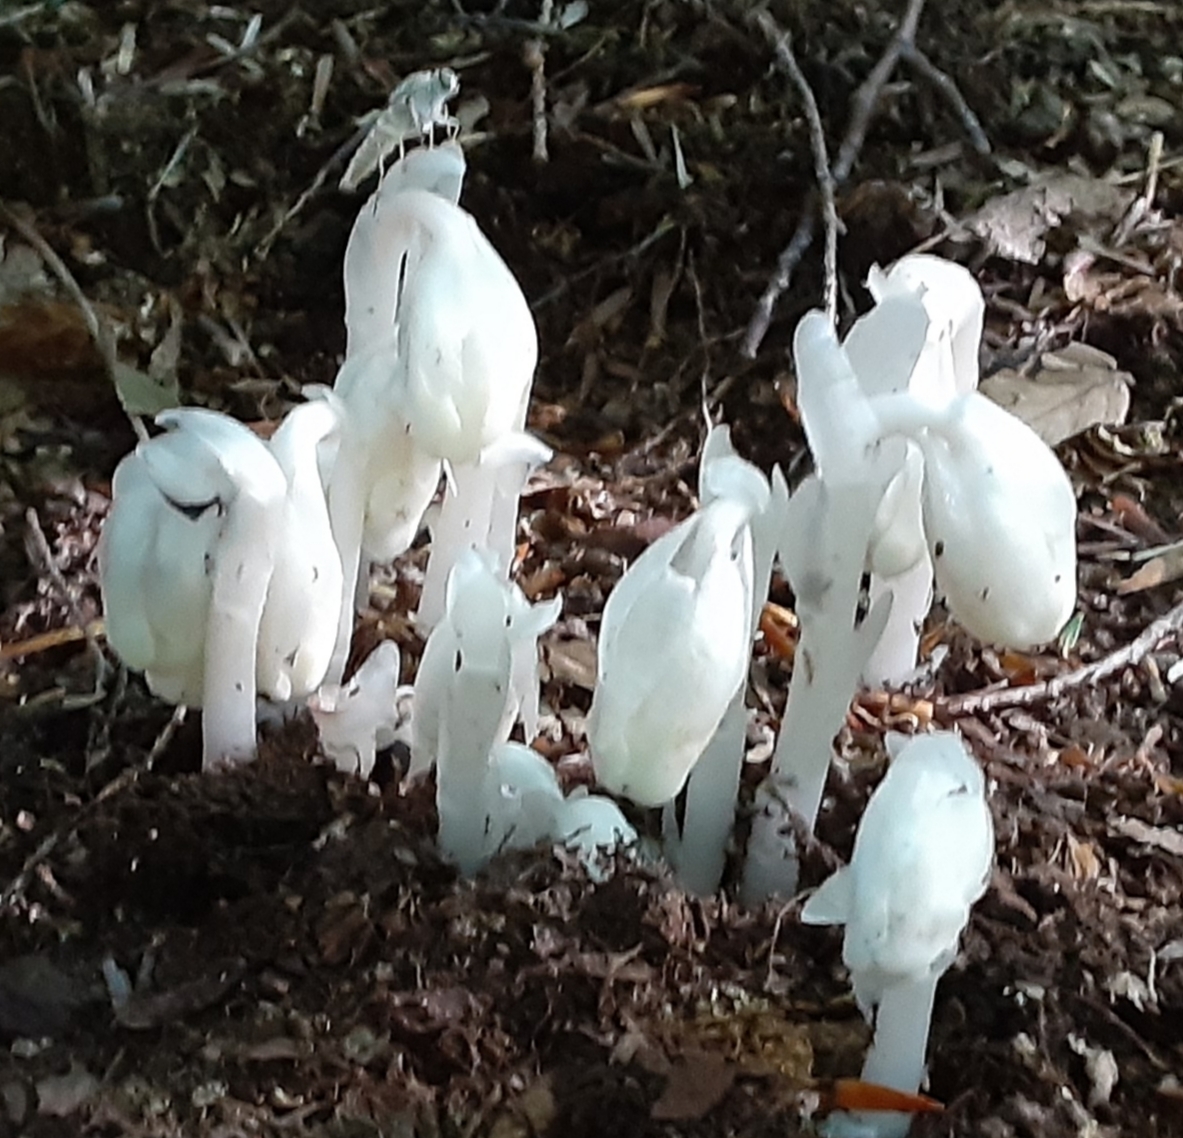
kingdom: Plantae
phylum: Tracheophyta
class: Magnoliopsida
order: Ericales
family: Ericaceae
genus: Monotropa
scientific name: Monotropa uniflora
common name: Convulsion root
